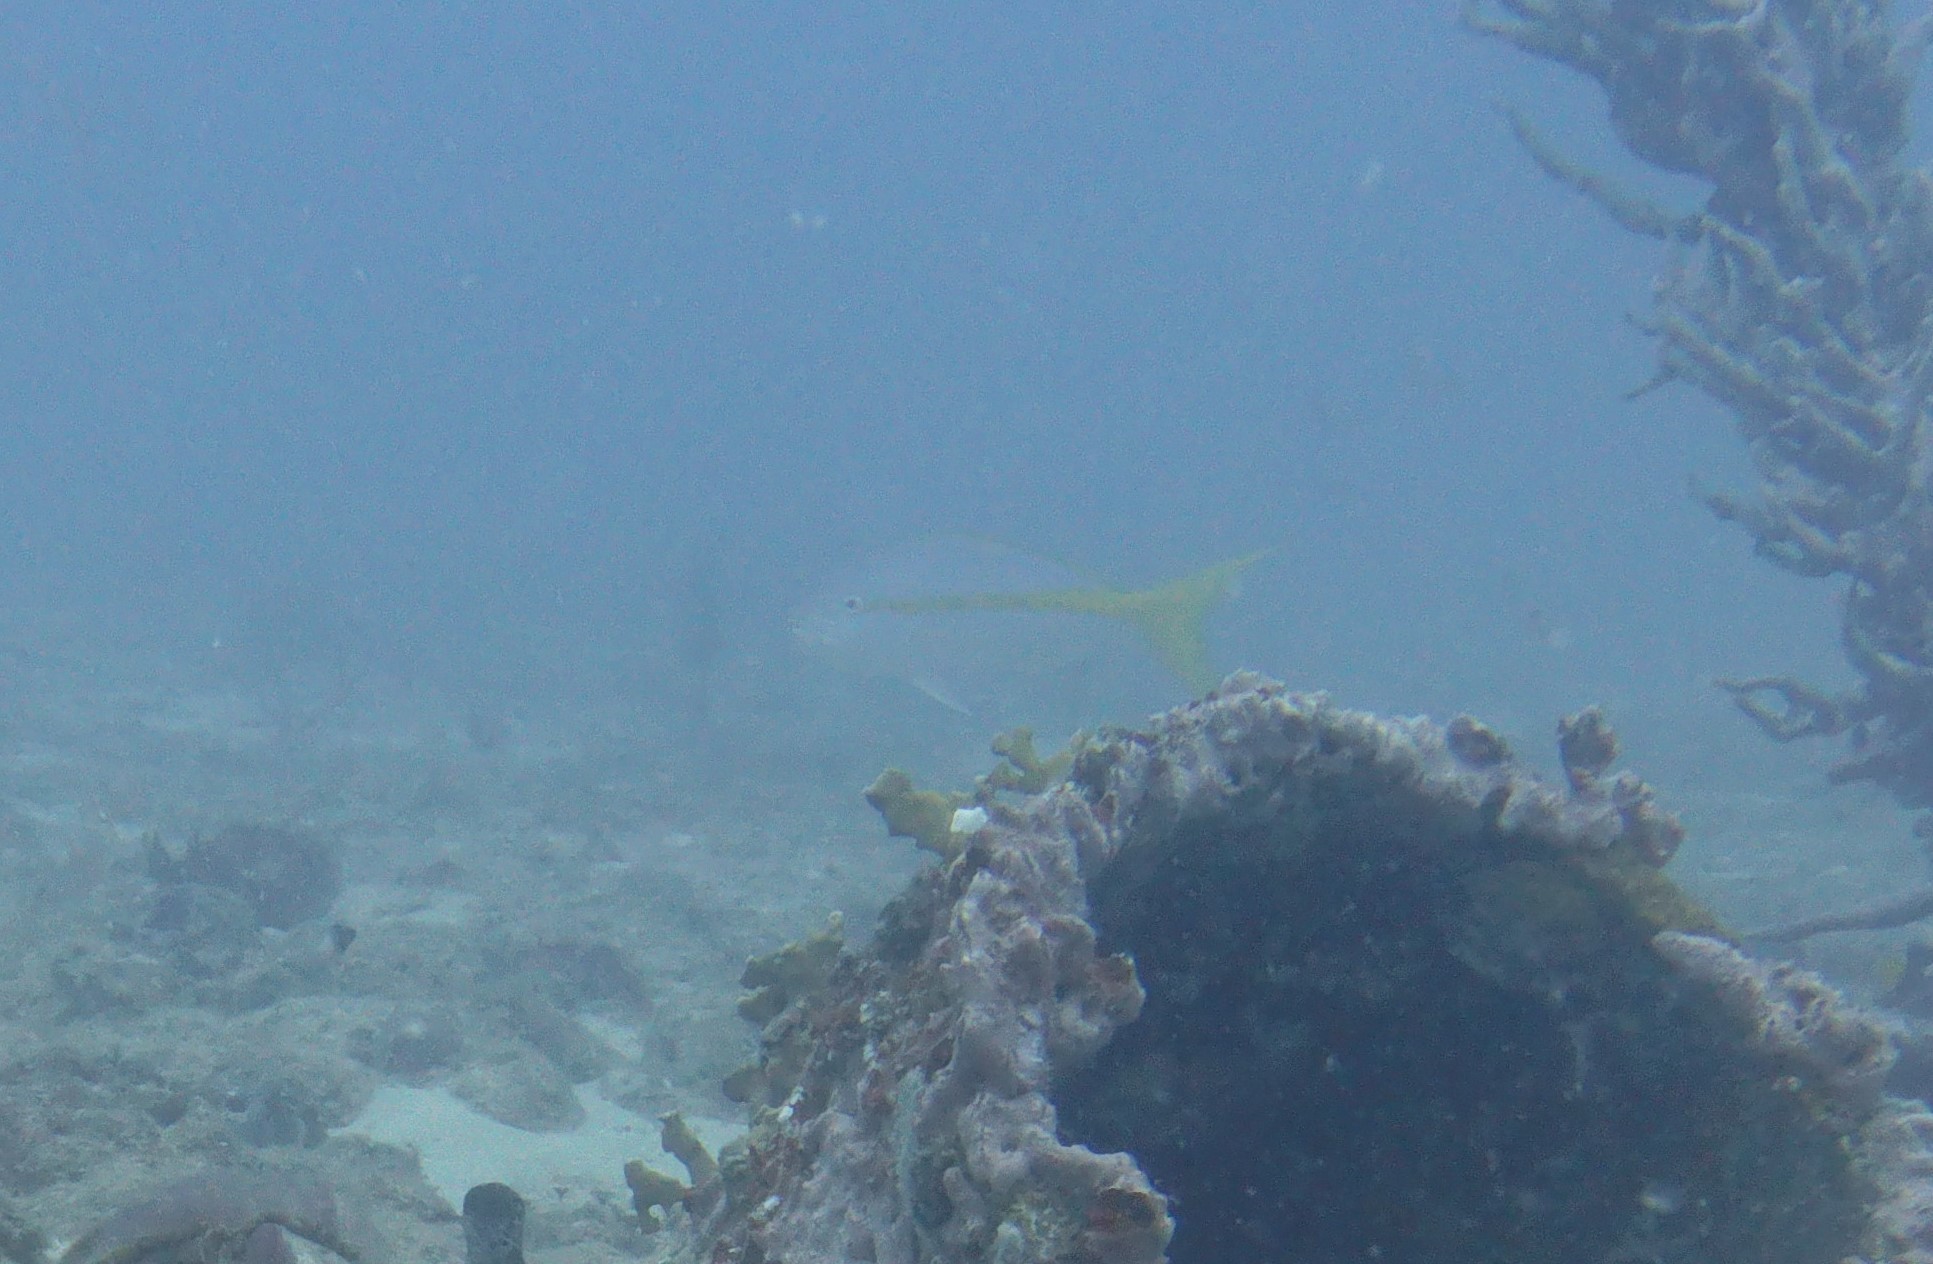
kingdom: Animalia
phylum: Chordata
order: Perciformes
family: Lutjanidae
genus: Ocyurus
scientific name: Ocyurus chrysurus
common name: Yellowtail snapper
